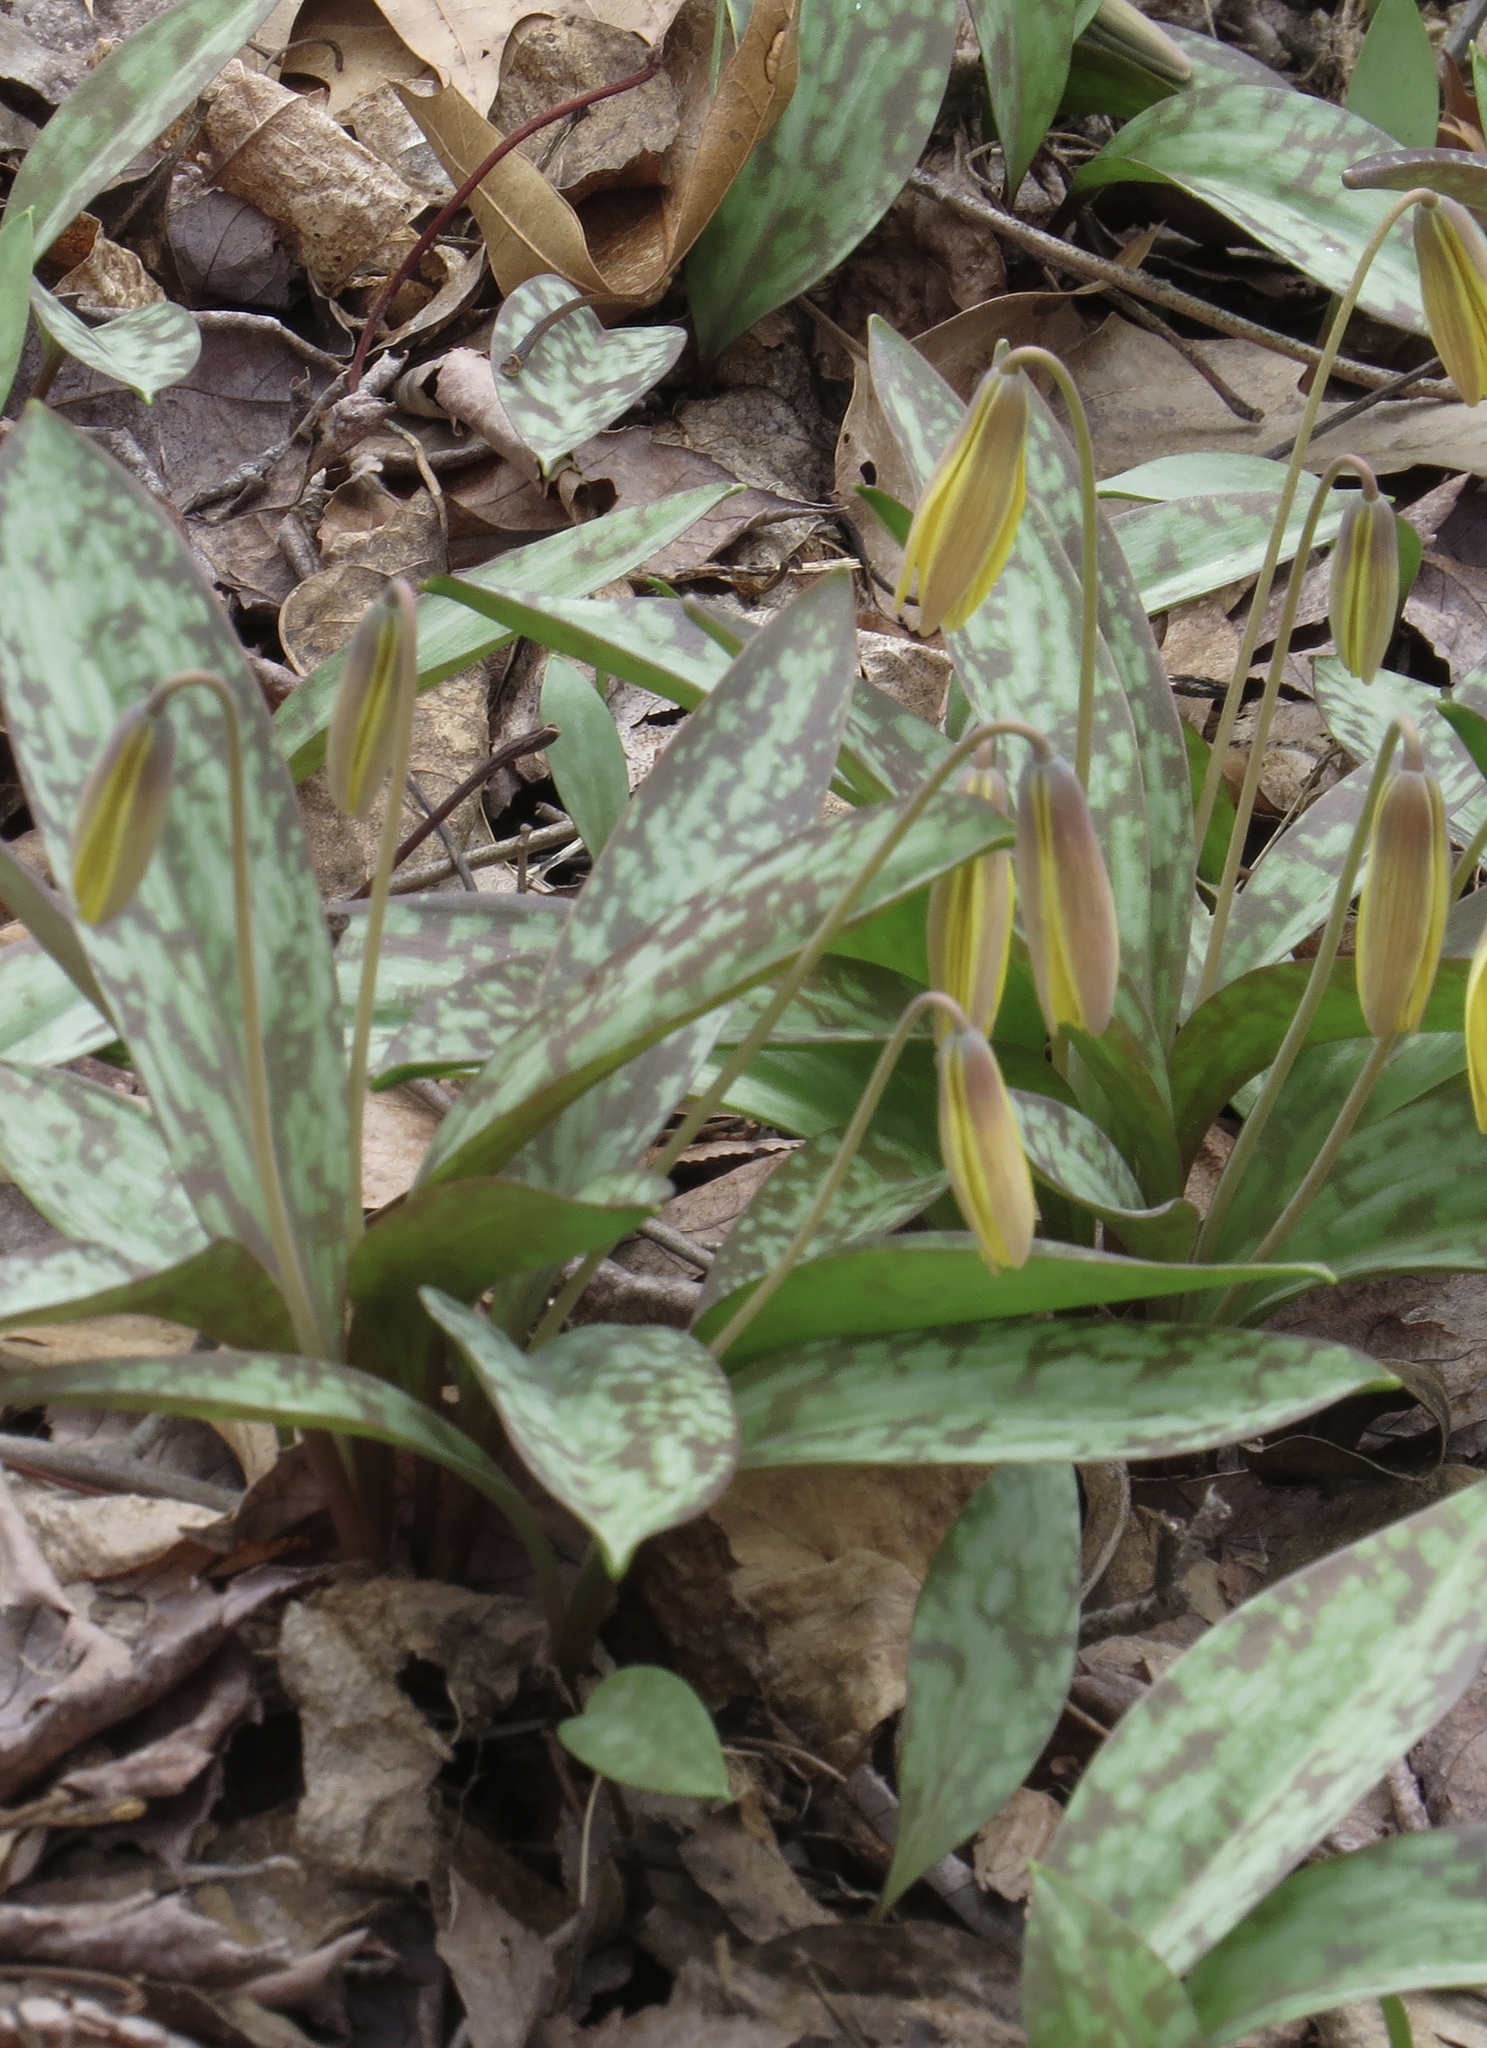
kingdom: Plantae
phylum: Tracheophyta
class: Liliopsida
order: Liliales
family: Liliaceae
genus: Erythronium
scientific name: Erythronium americanum
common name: Yellow adder's-tongue
